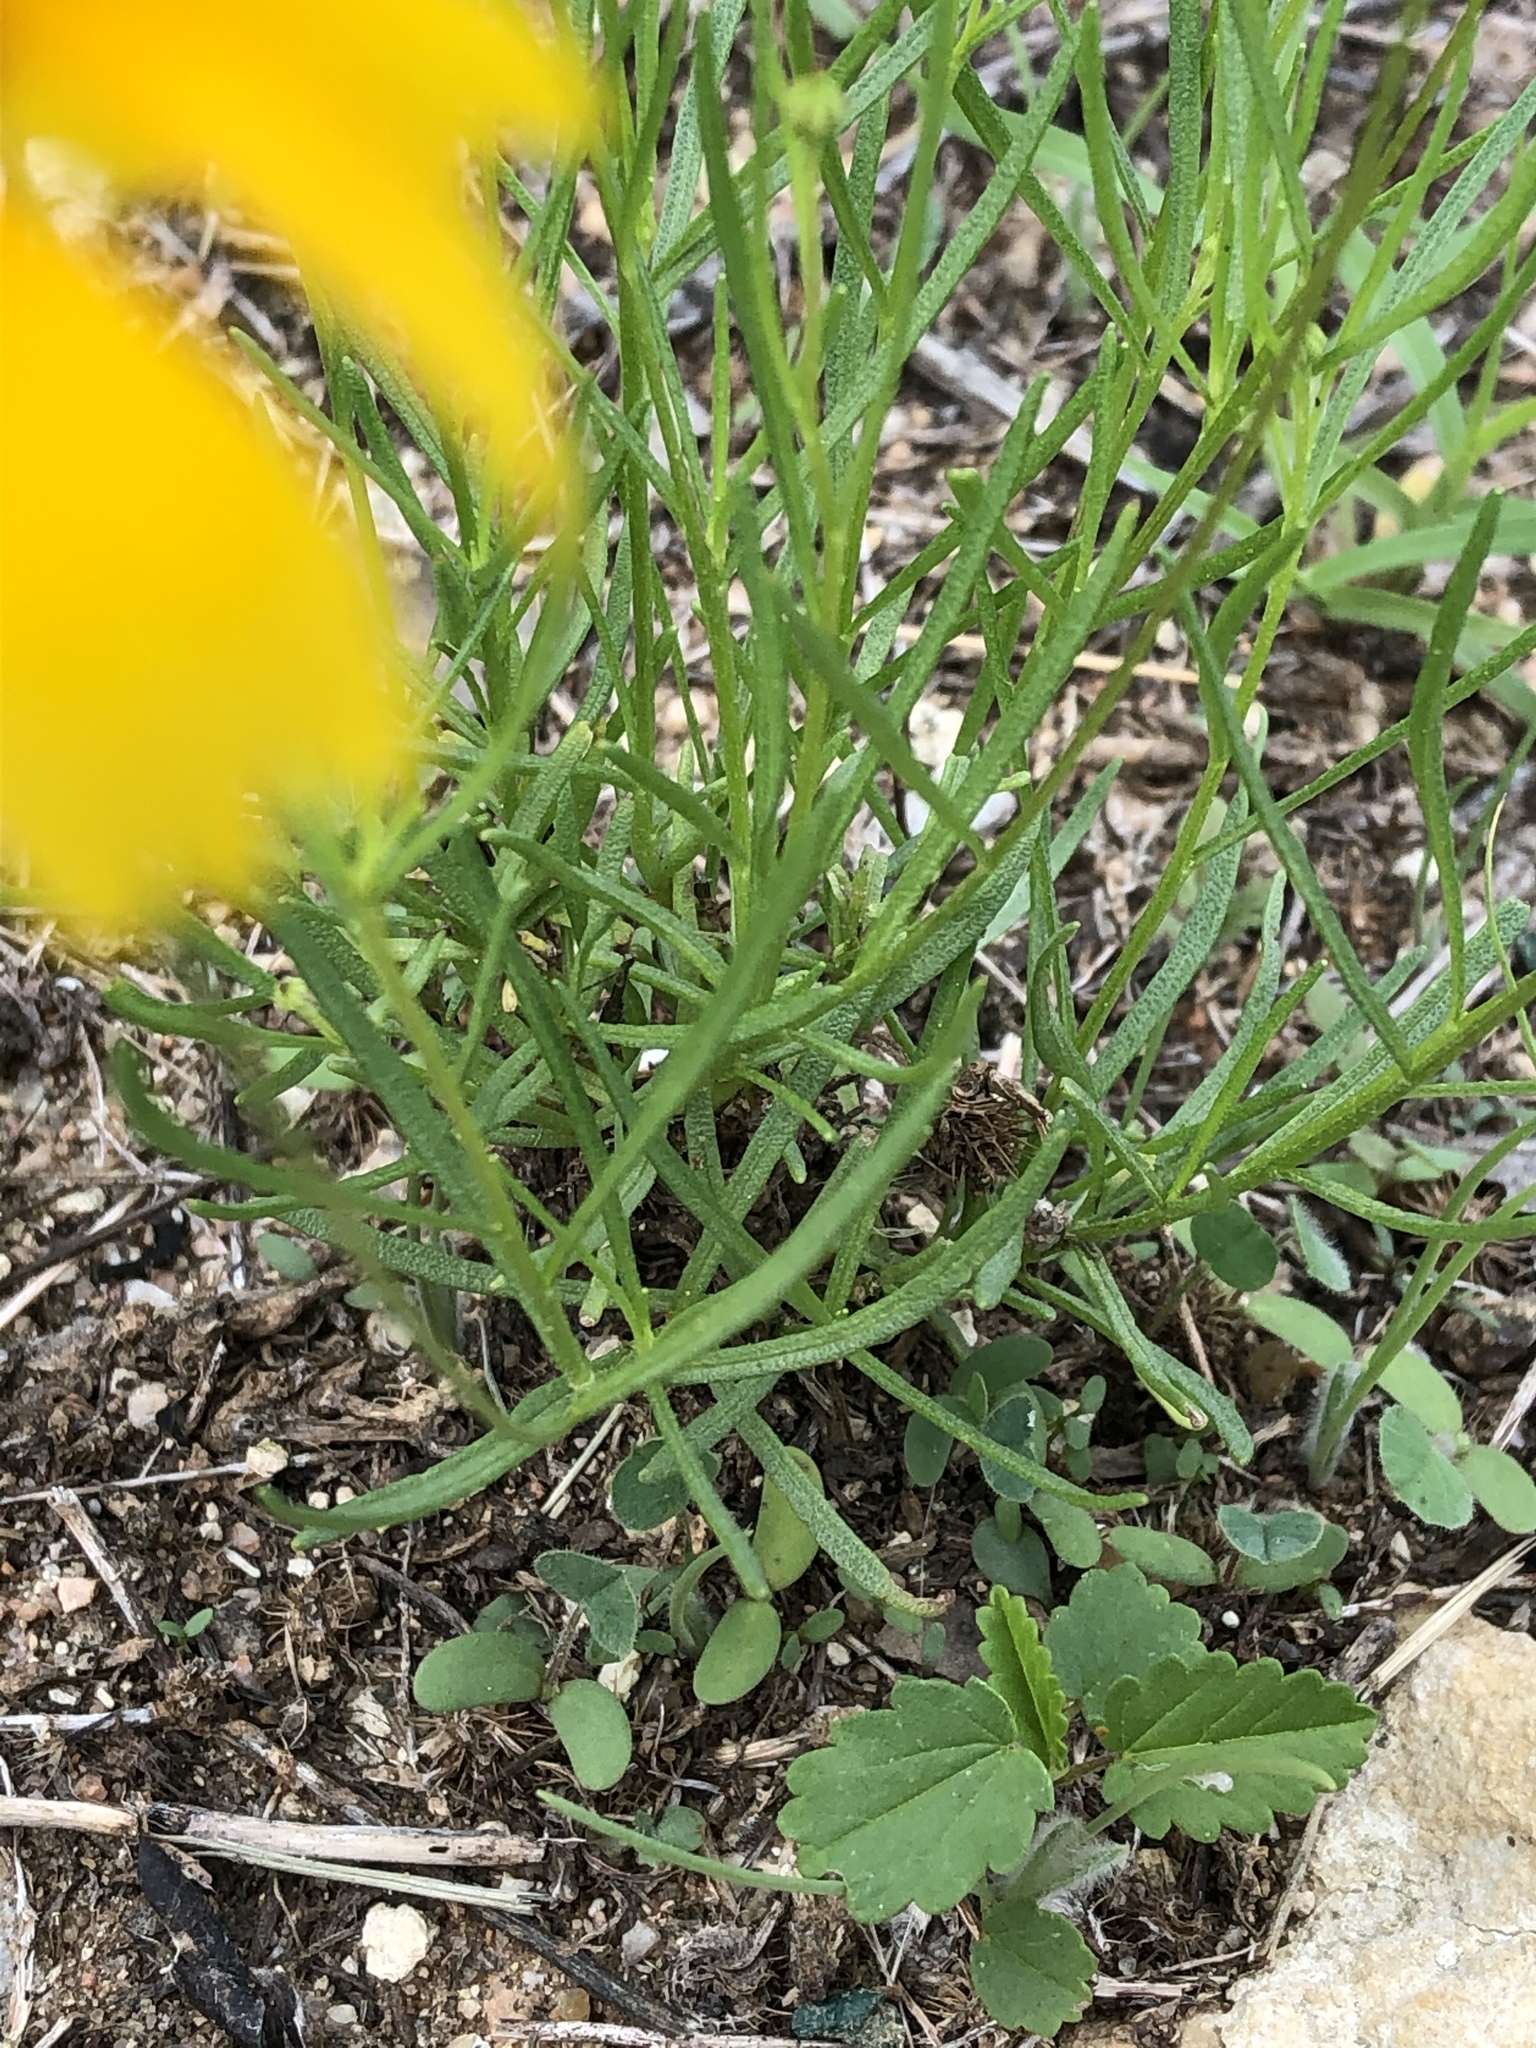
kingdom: Plantae
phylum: Tracheophyta
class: Magnoliopsida
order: Asterales
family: Asteraceae
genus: Helenium
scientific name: Helenium amarum
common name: Bitter sneezeweed
